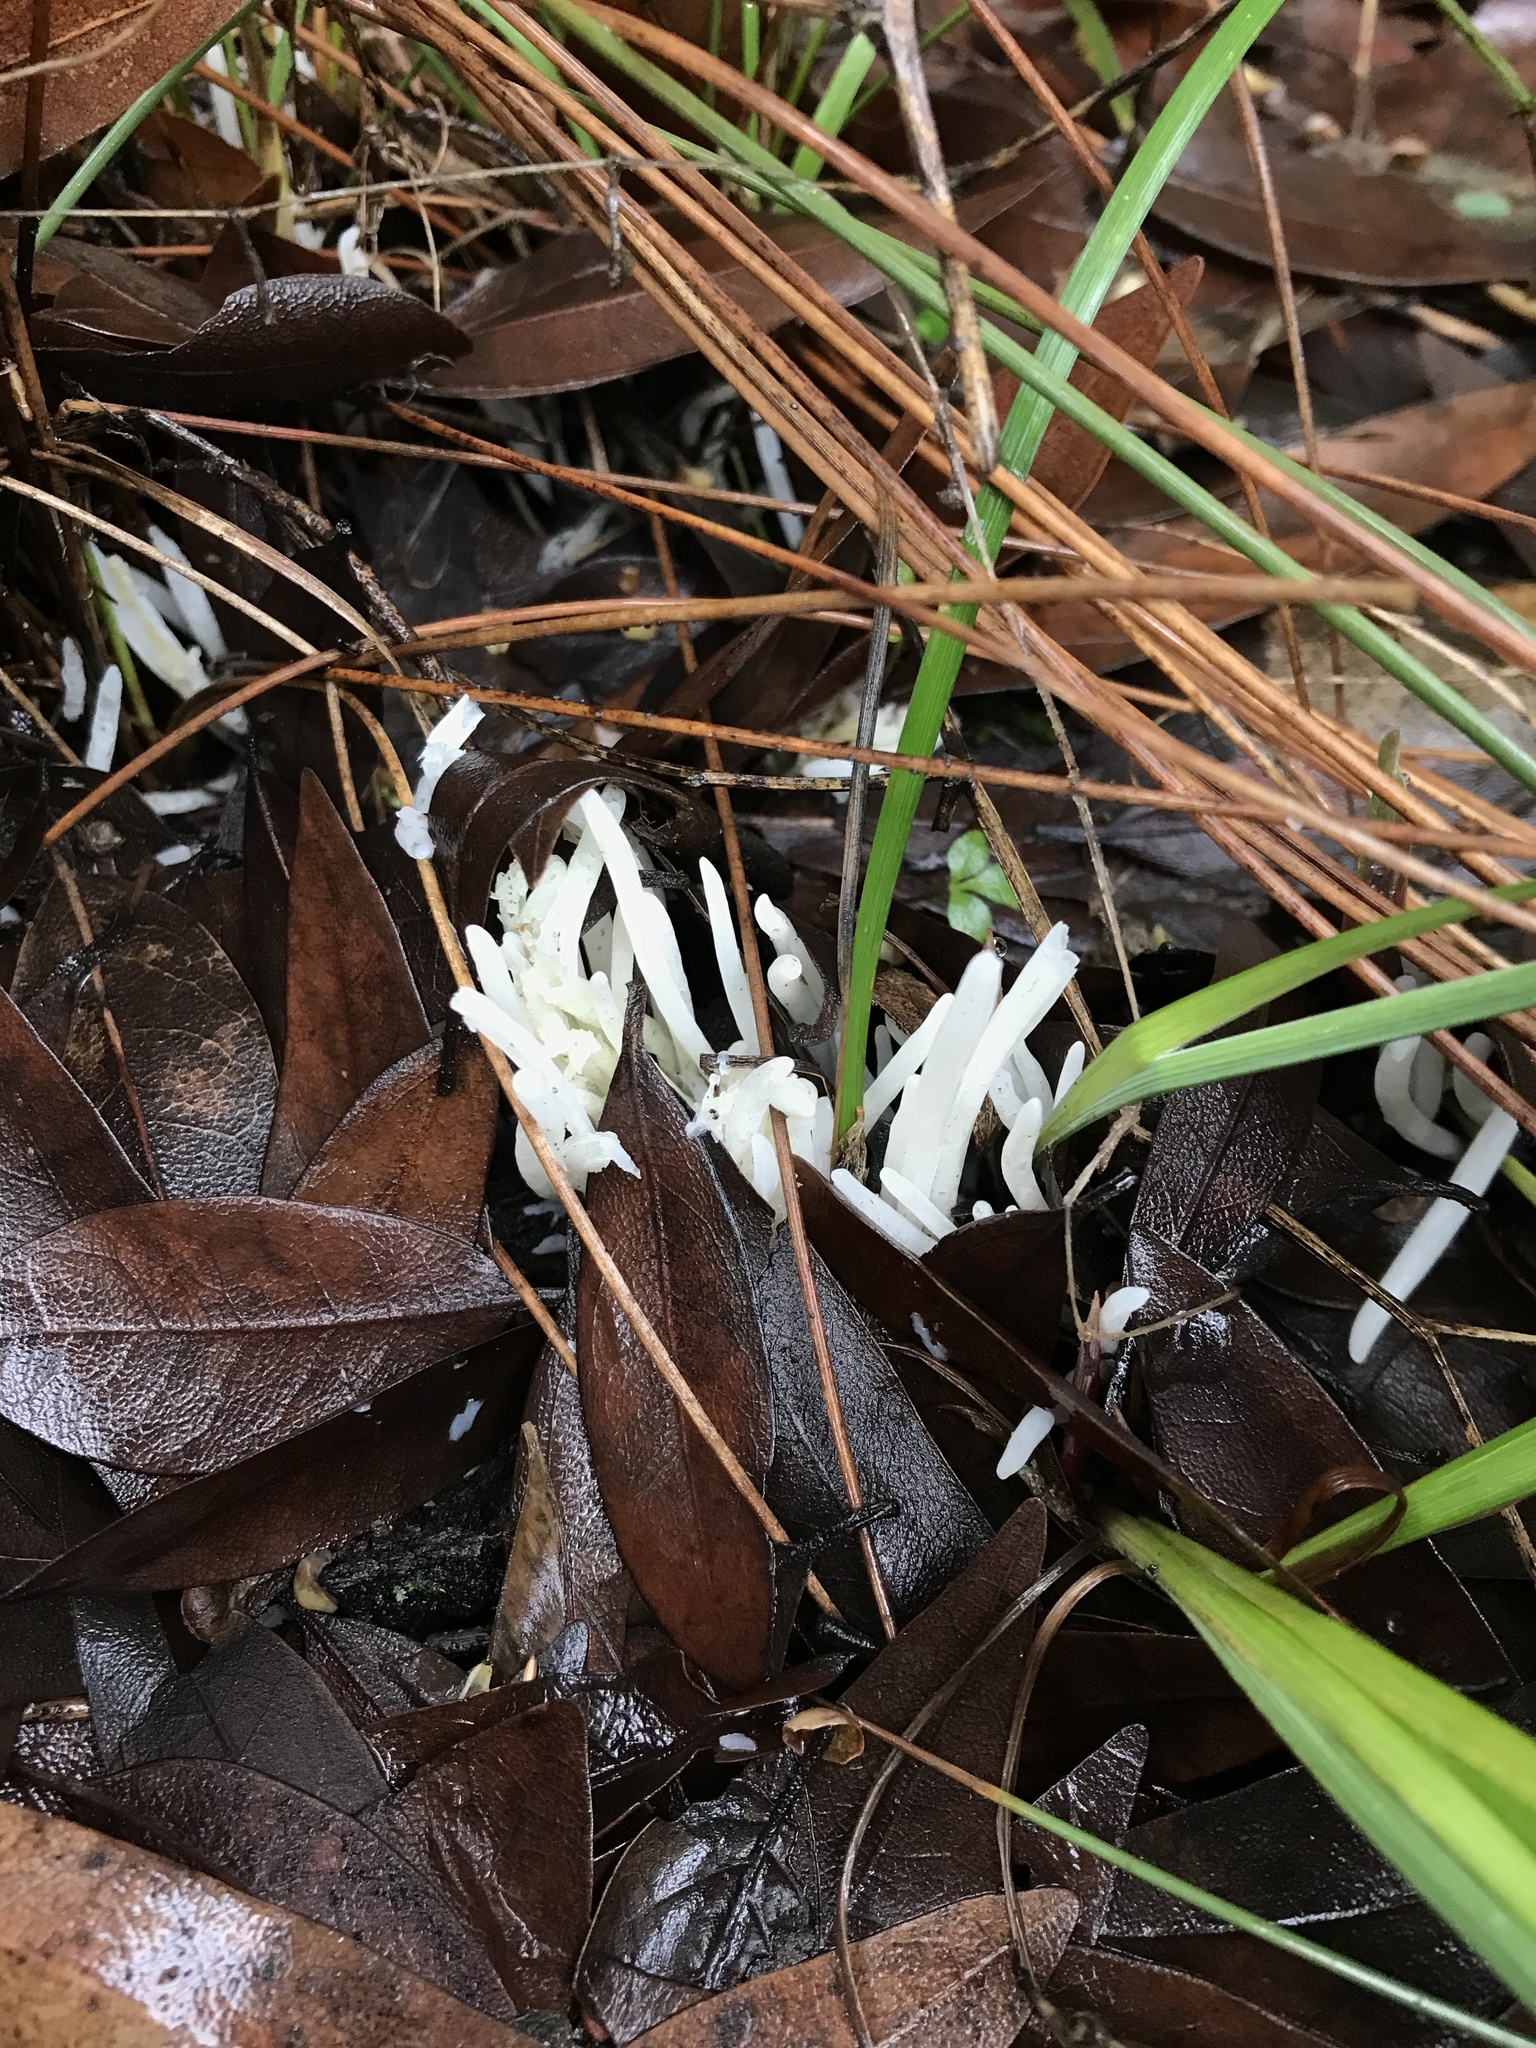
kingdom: Fungi
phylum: Basidiomycota
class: Agaricomycetes
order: Agaricales
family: Clavariaceae
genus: Clavaria
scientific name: Clavaria fragilis
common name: White spindles
